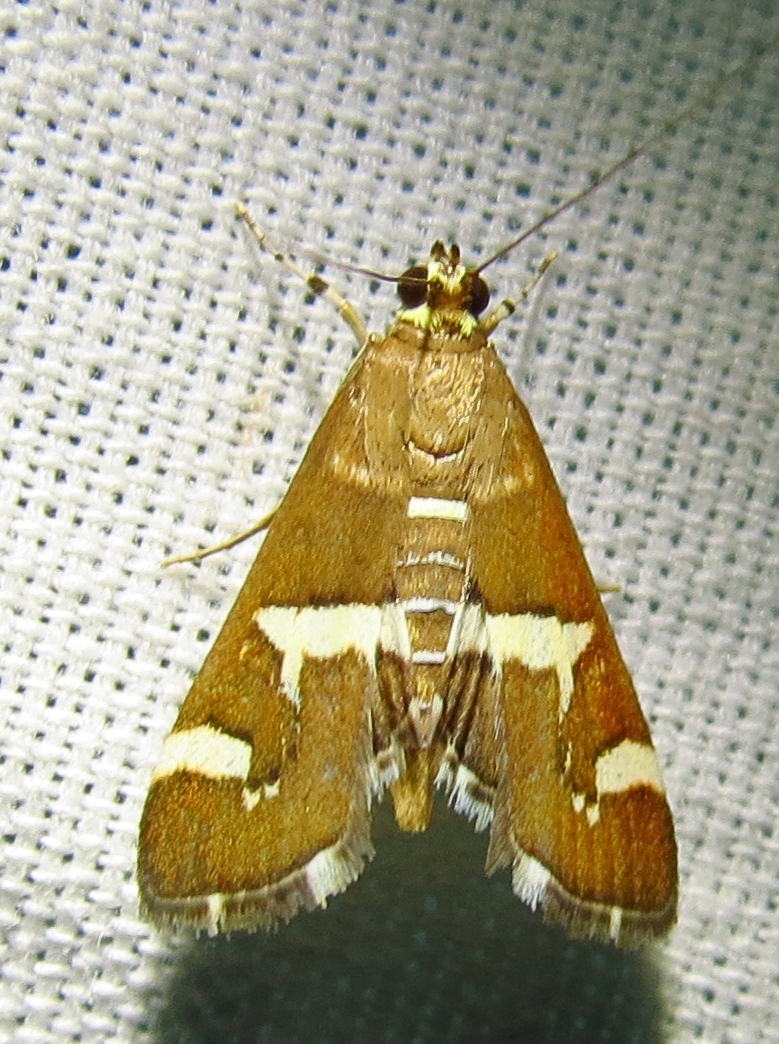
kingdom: Animalia
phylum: Arthropoda
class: Insecta
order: Lepidoptera
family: Crambidae
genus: Spoladea
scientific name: Spoladea recurvalis
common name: Beet webworm moth
